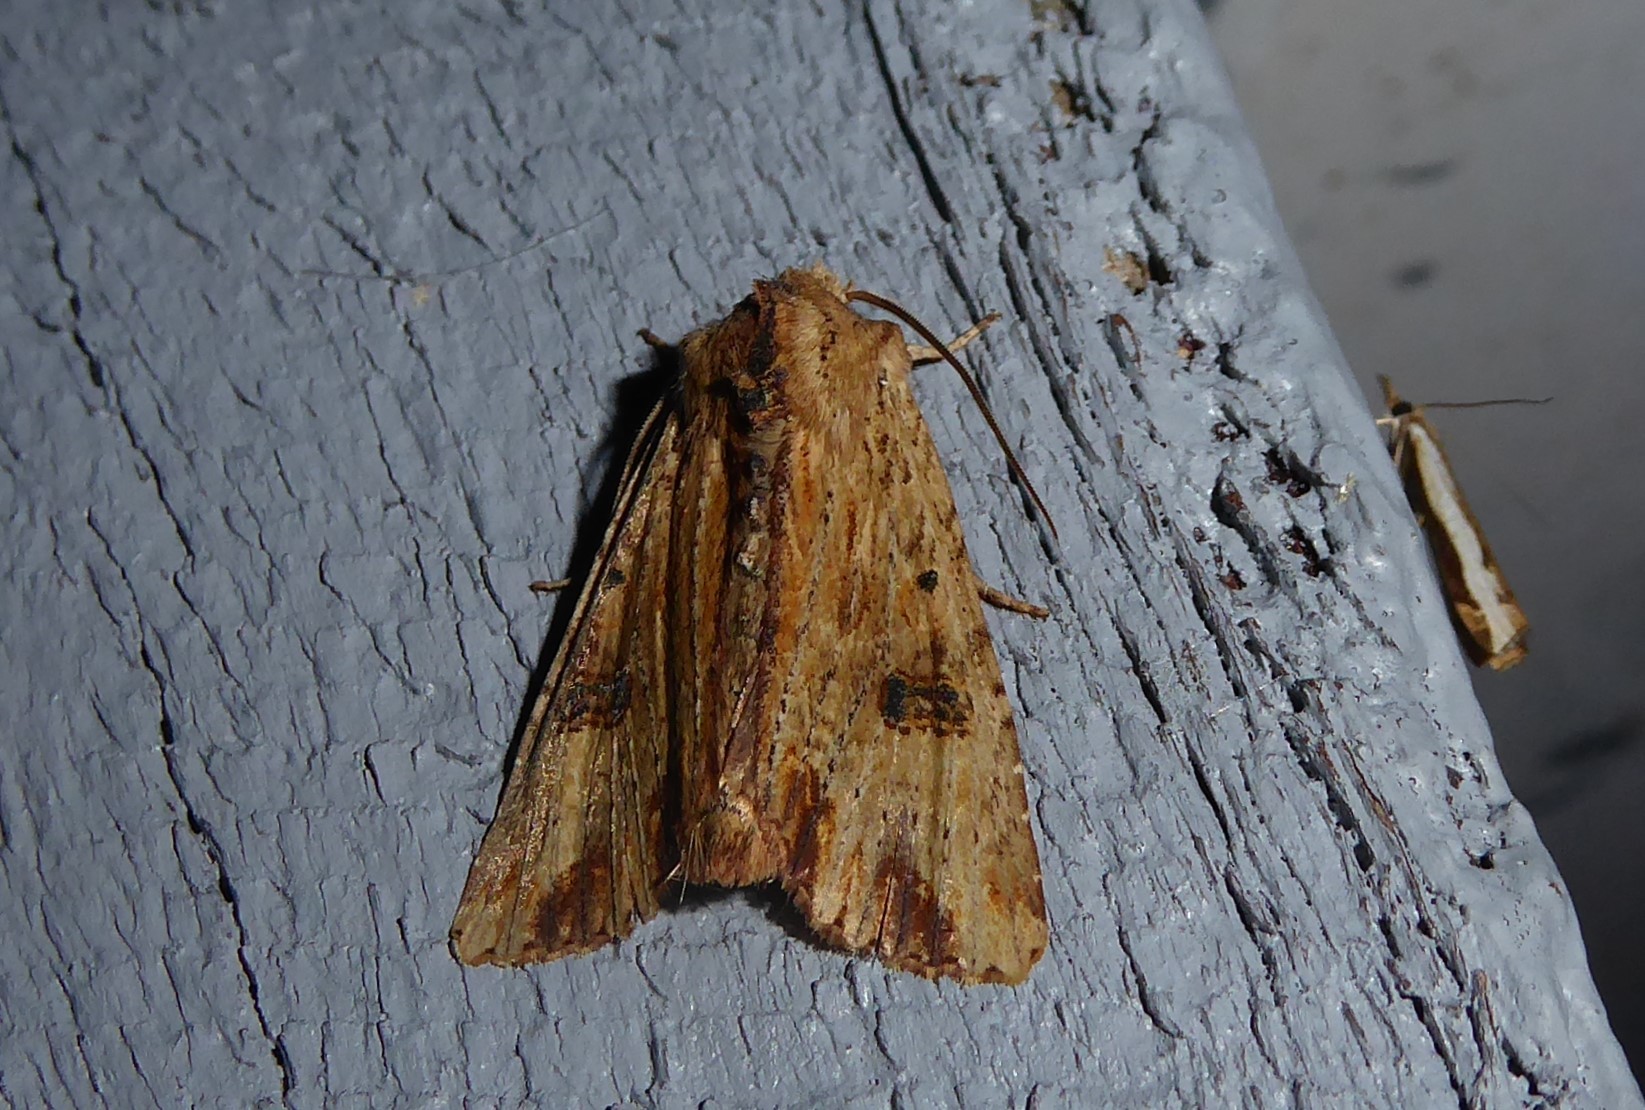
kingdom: Animalia
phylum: Arthropoda
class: Insecta
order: Lepidoptera
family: Noctuidae
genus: Ichneutica
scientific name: Ichneutica
